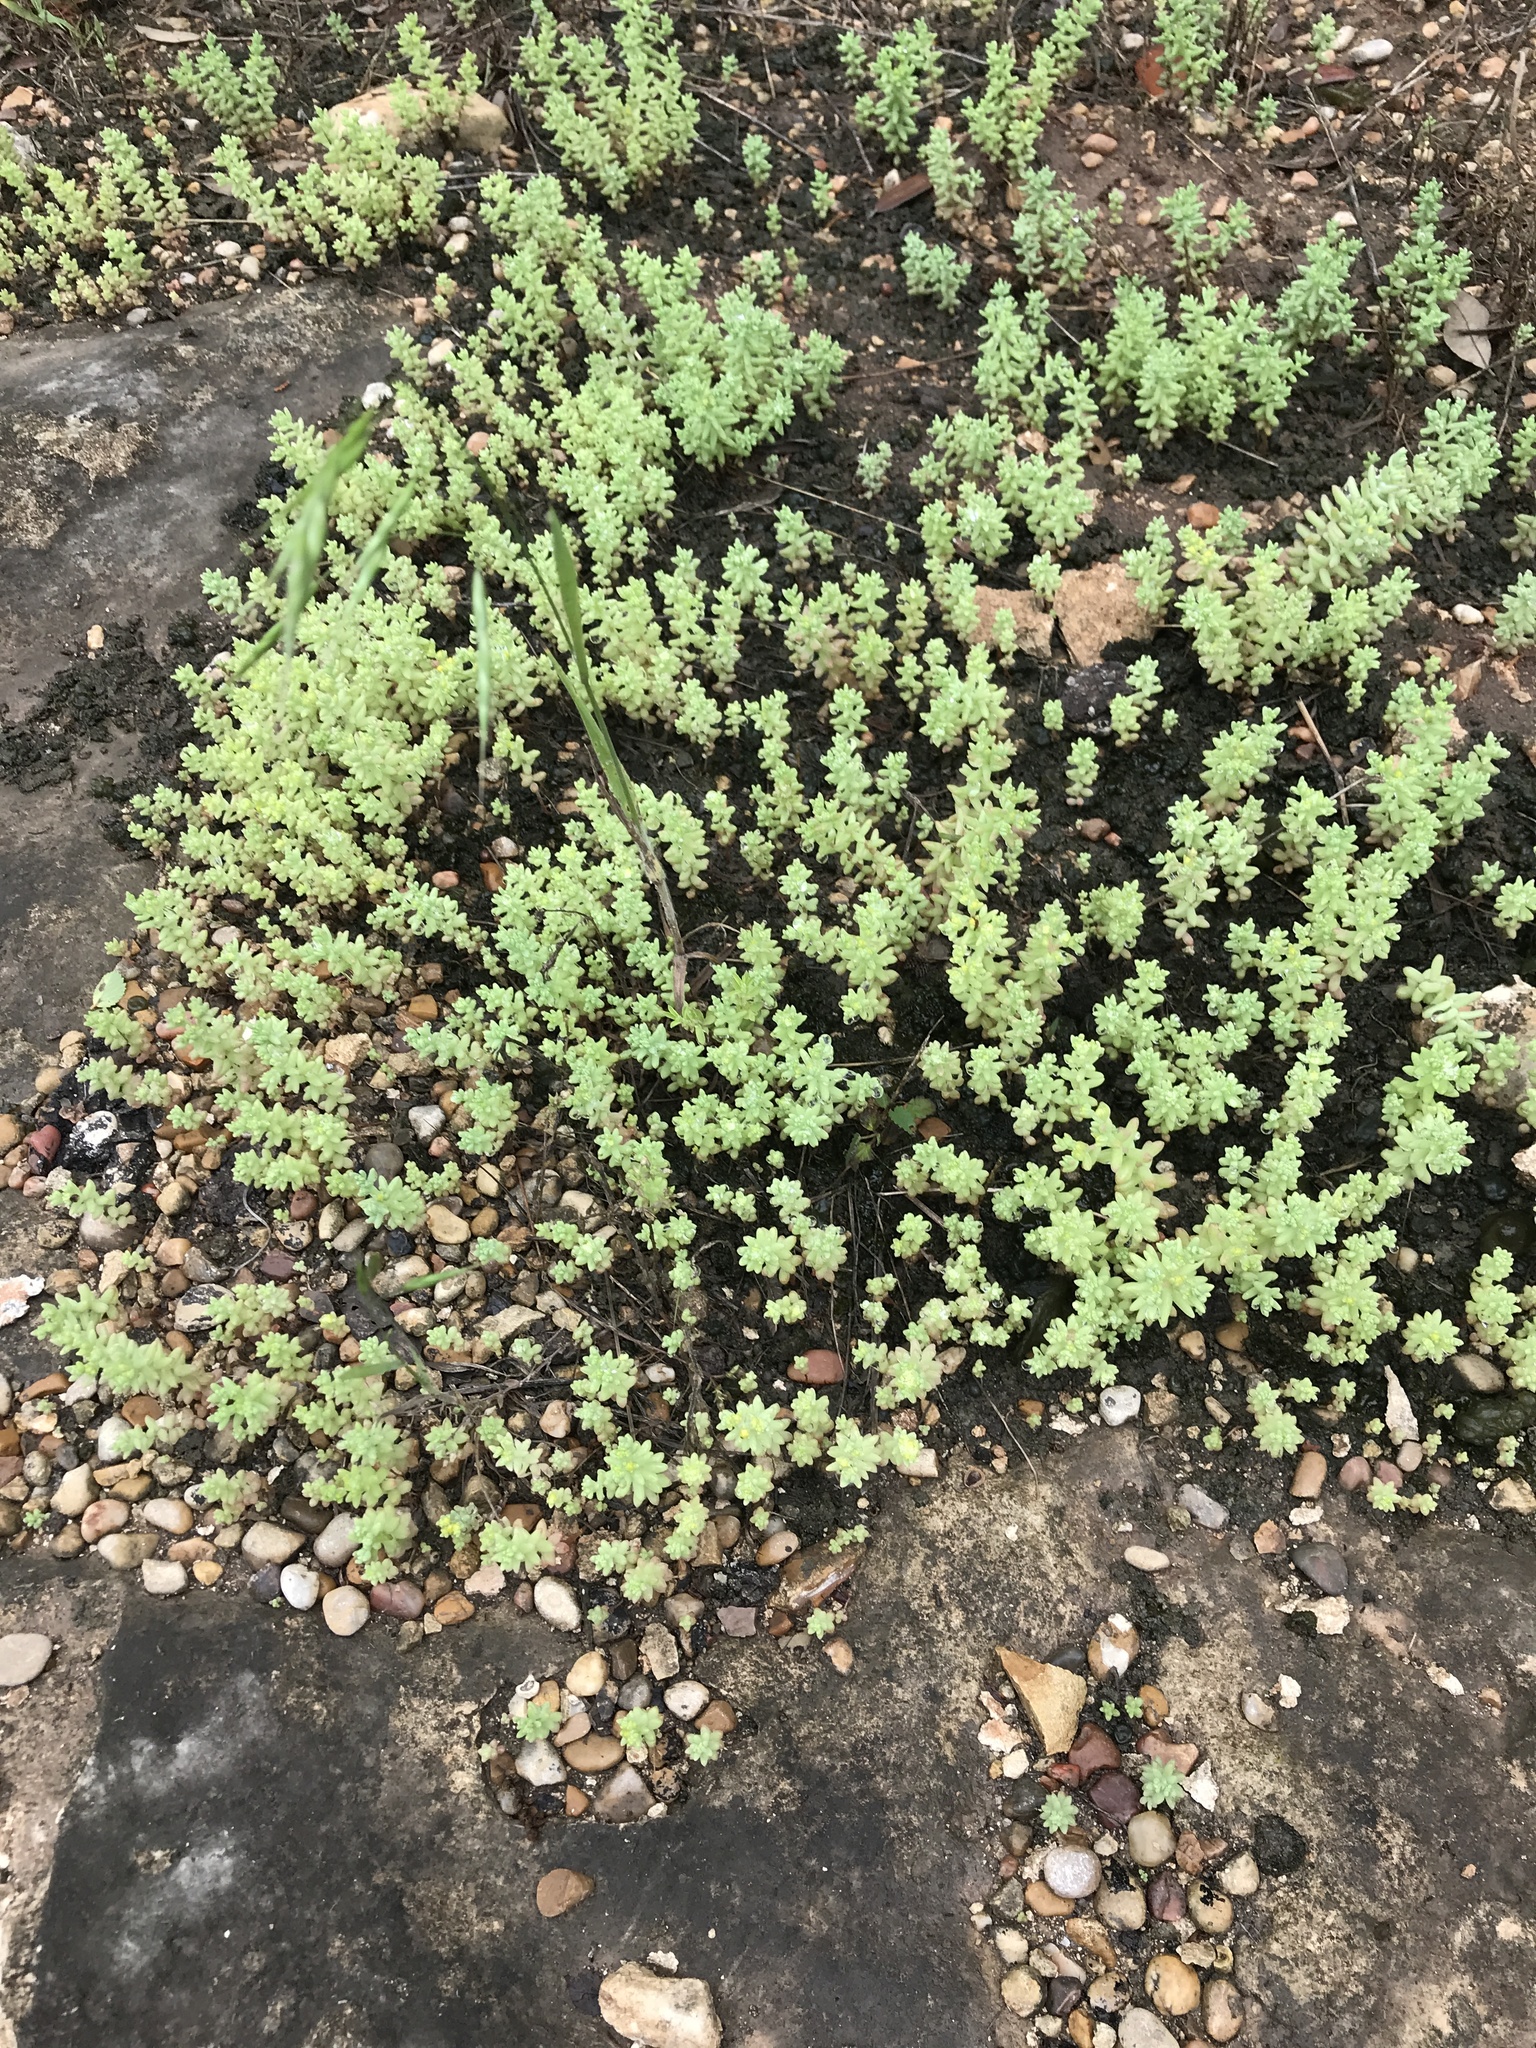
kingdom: Plantae
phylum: Tracheophyta
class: Magnoliopsida
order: Saxifragales
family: Crassulaceae
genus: Sedum
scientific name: Sedum nuttallii
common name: Yellow stonecrop
